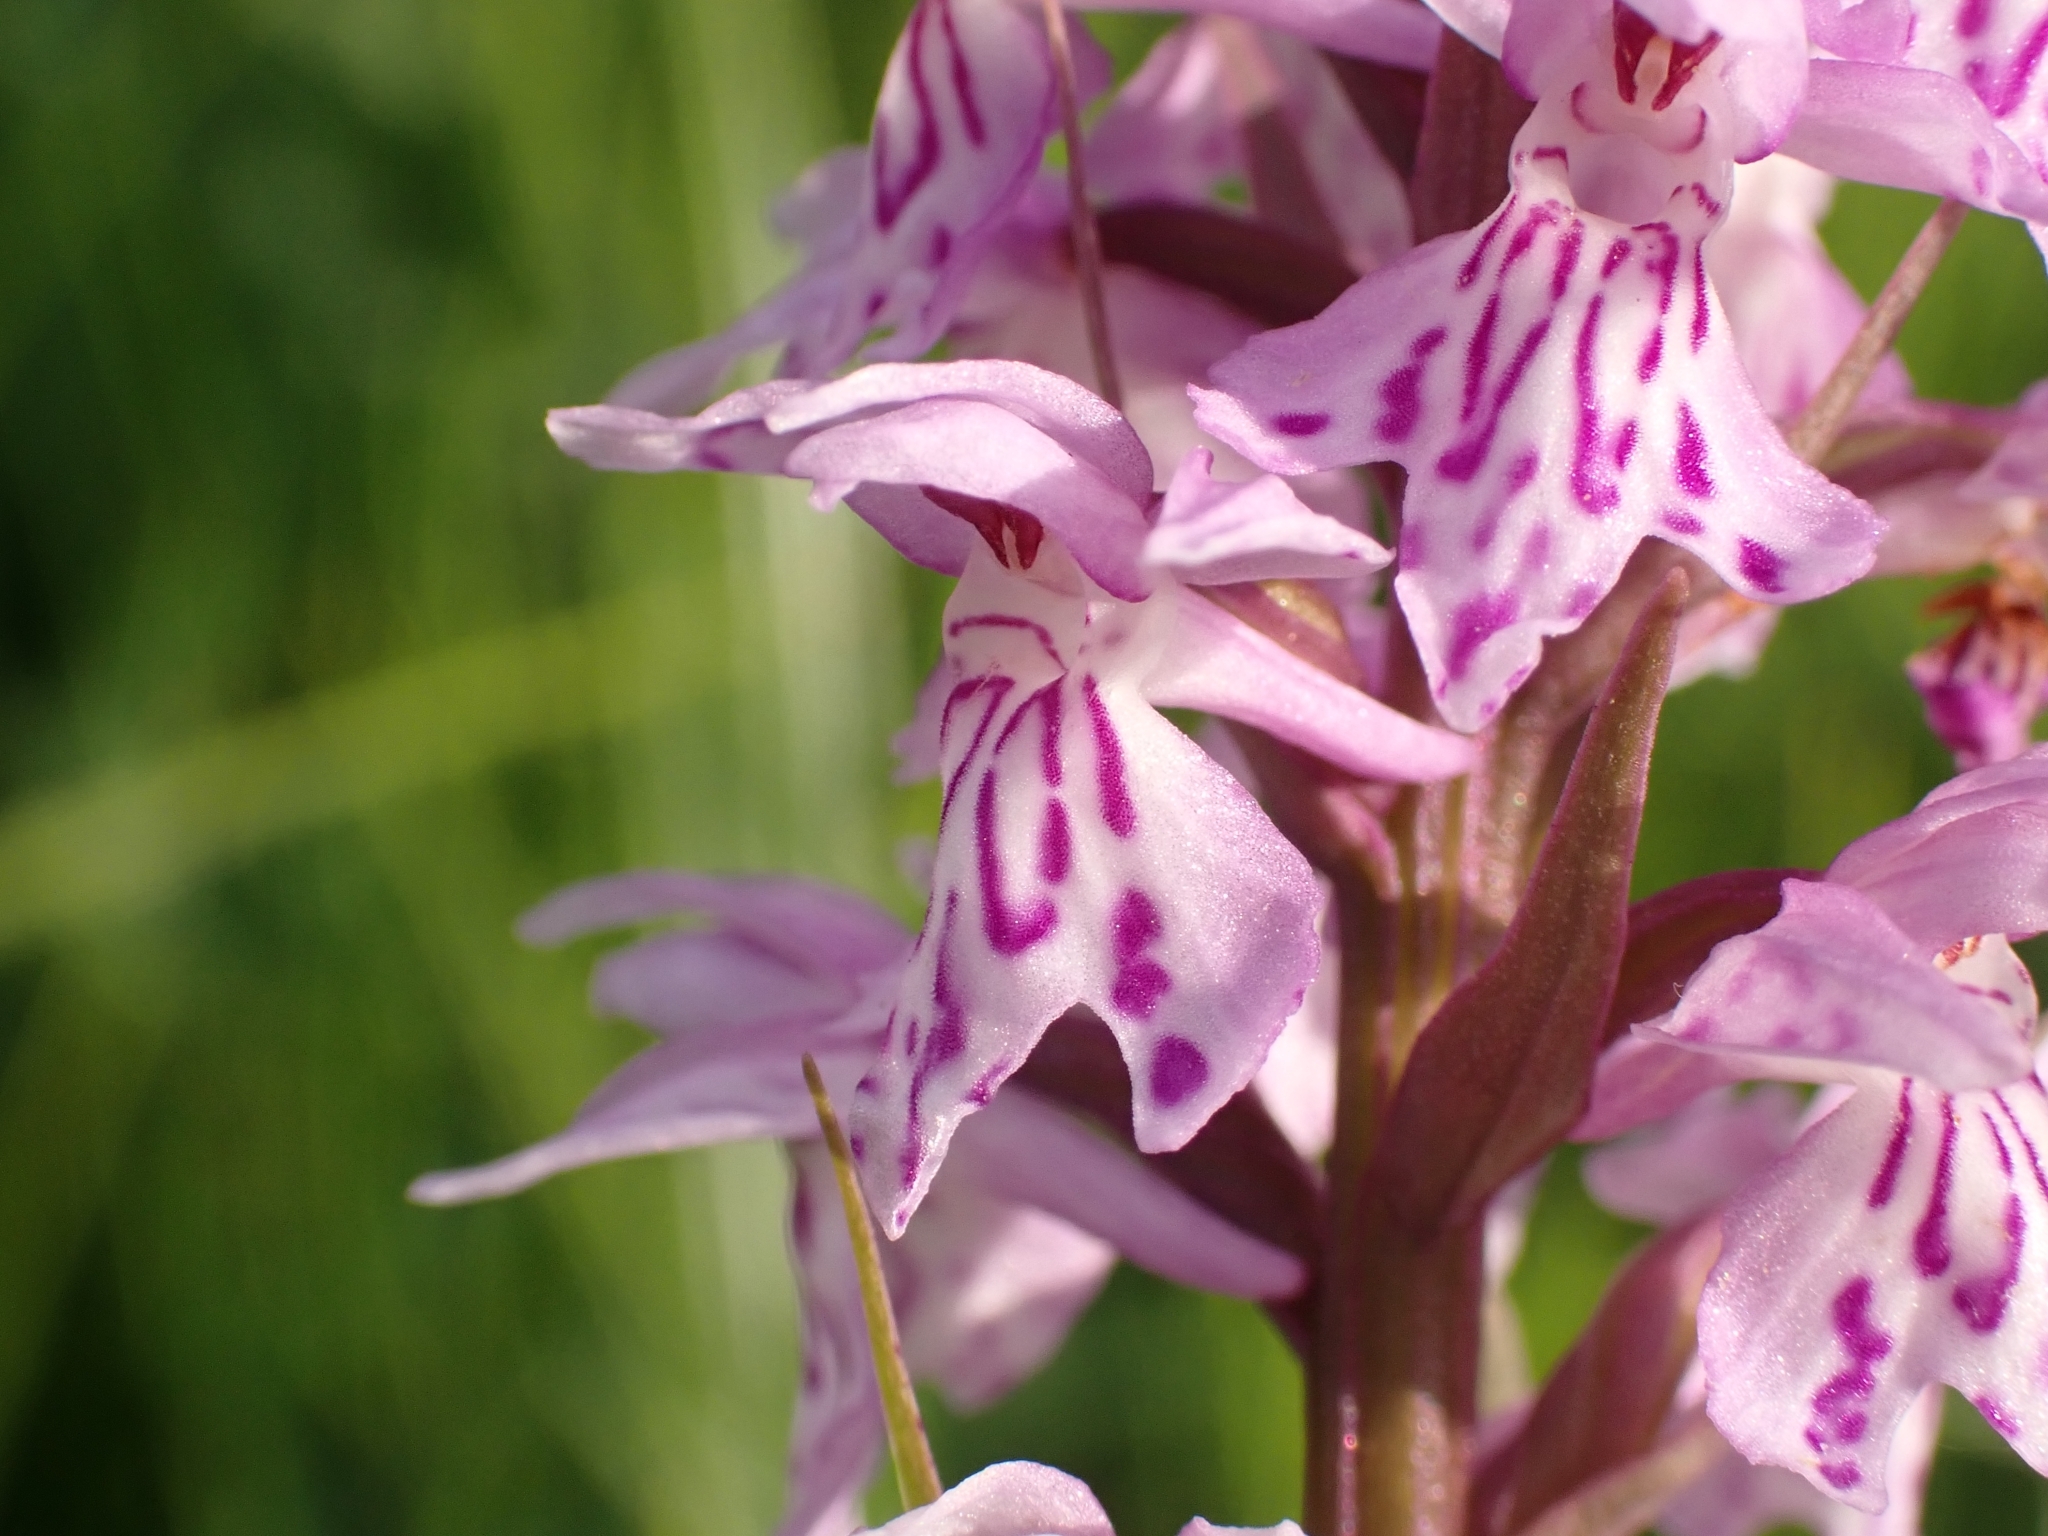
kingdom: Plantae
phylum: Tracheophyta
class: Liliopsida
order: Asparagales
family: Orchidaceae
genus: Dactylorhiza
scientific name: Dactylorhiza maculata
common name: Heath spotted-orchid
